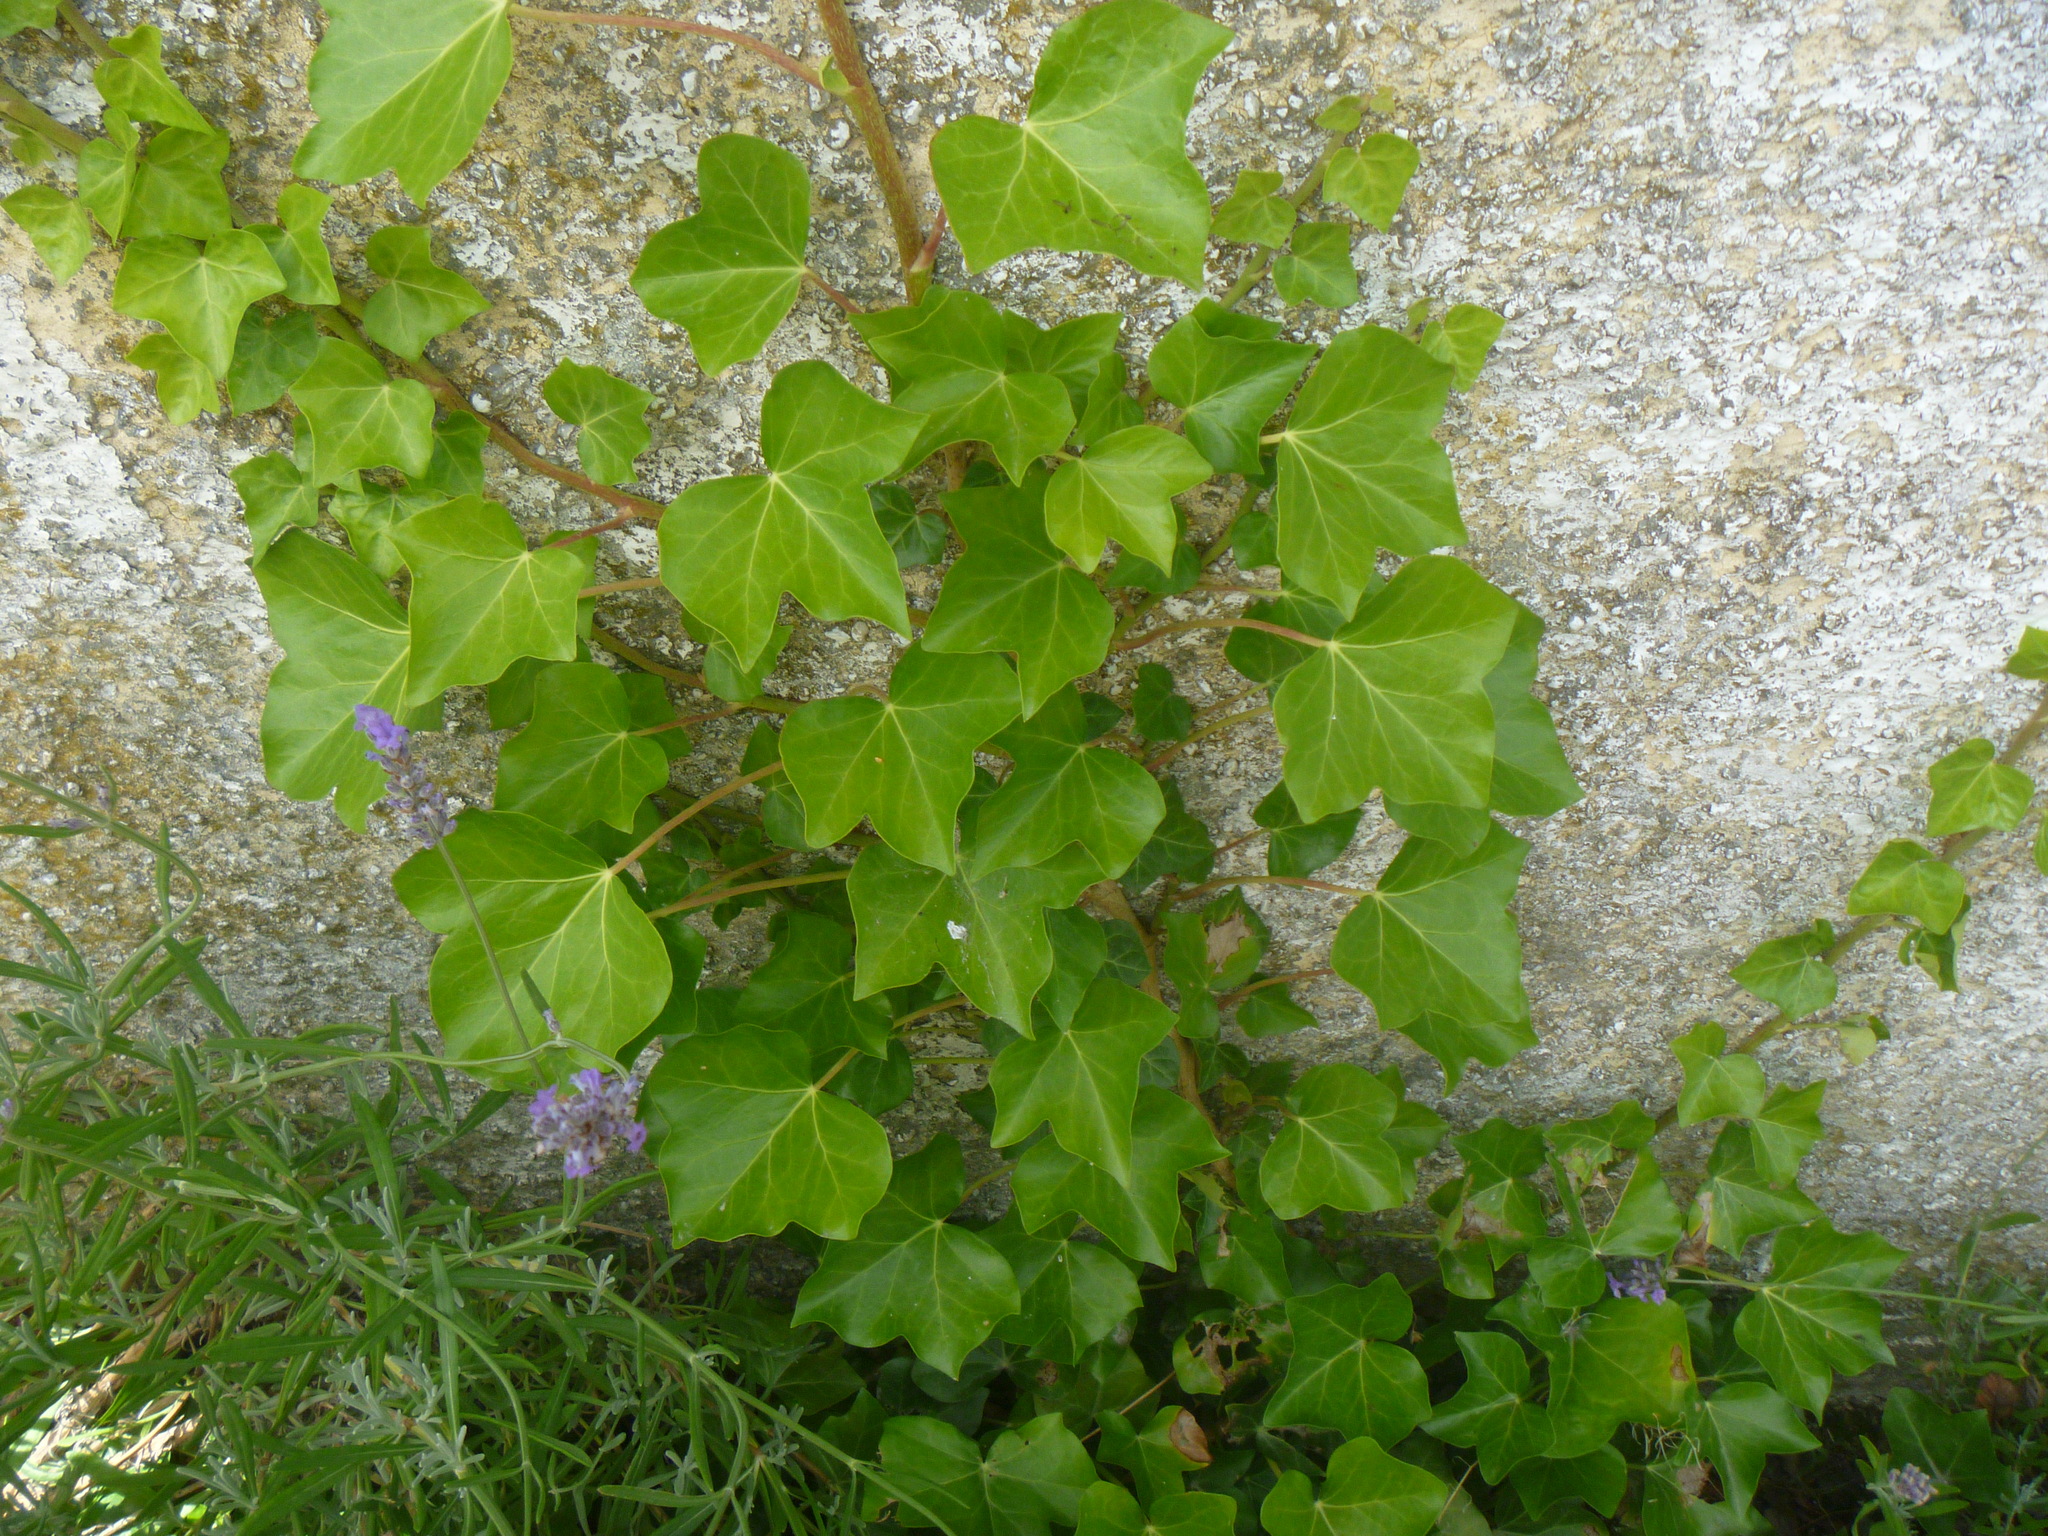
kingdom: Plantae
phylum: Tracheophyta
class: Magnoliopsida
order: Apiales
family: Araliaceae
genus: Hedera
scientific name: Hedera helix
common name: Ivy
